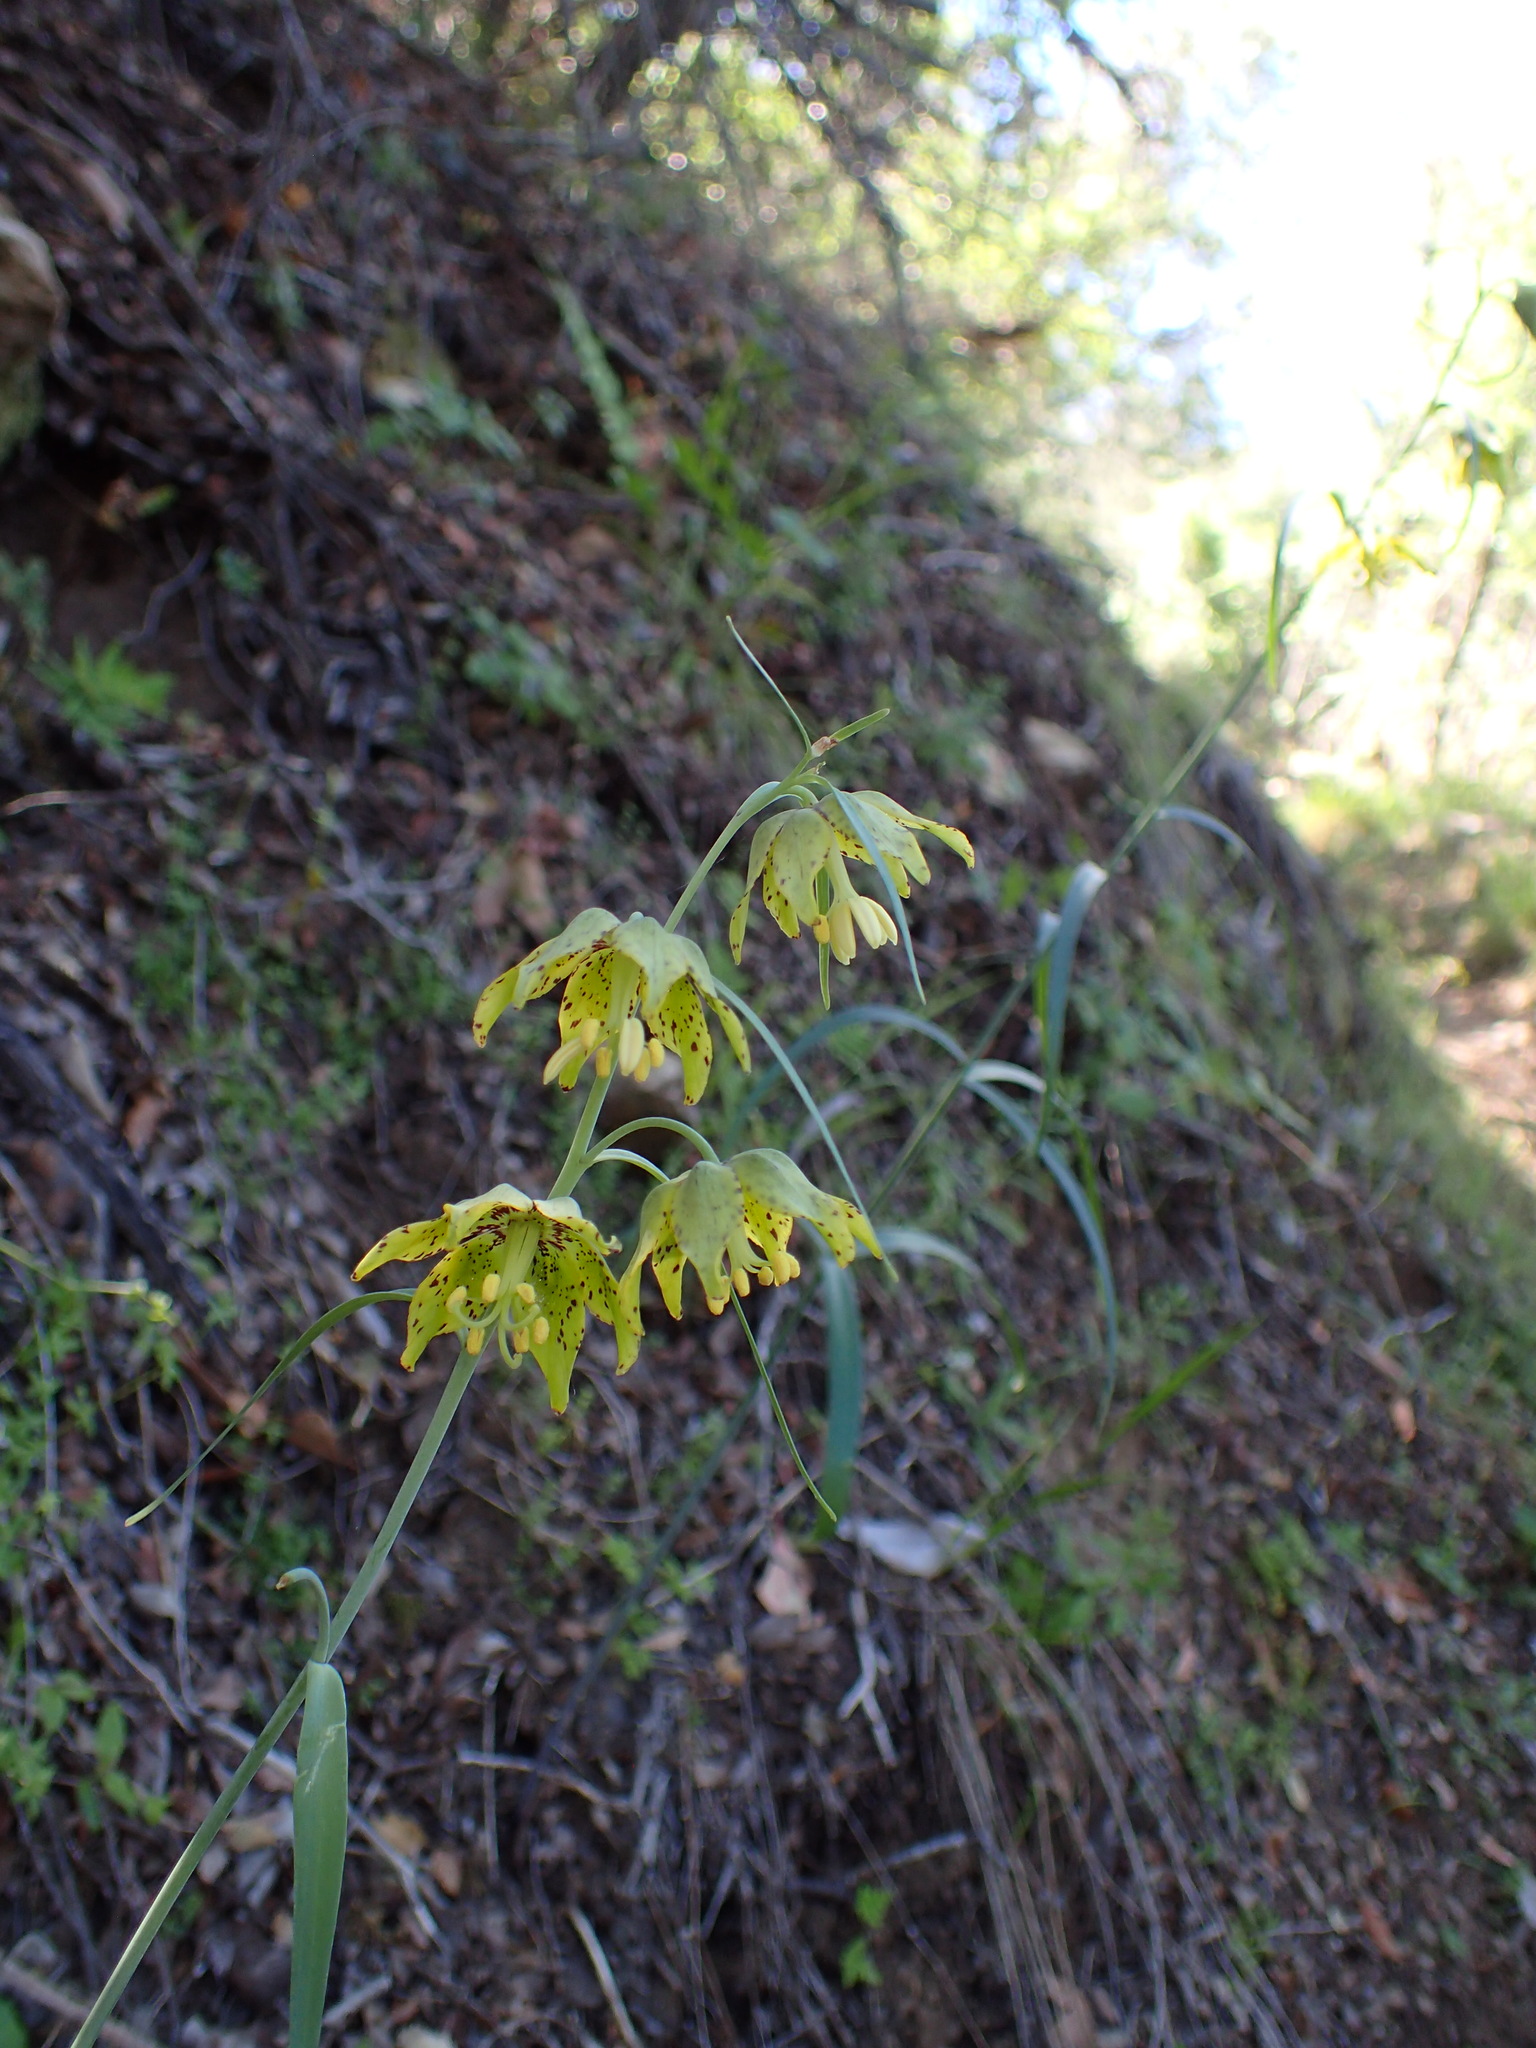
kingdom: Plantae
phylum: Tracheophyta
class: Liliopsida
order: Liliales
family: Liliaceae
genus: Fritillaria
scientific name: Fritillaria ojaiensis
